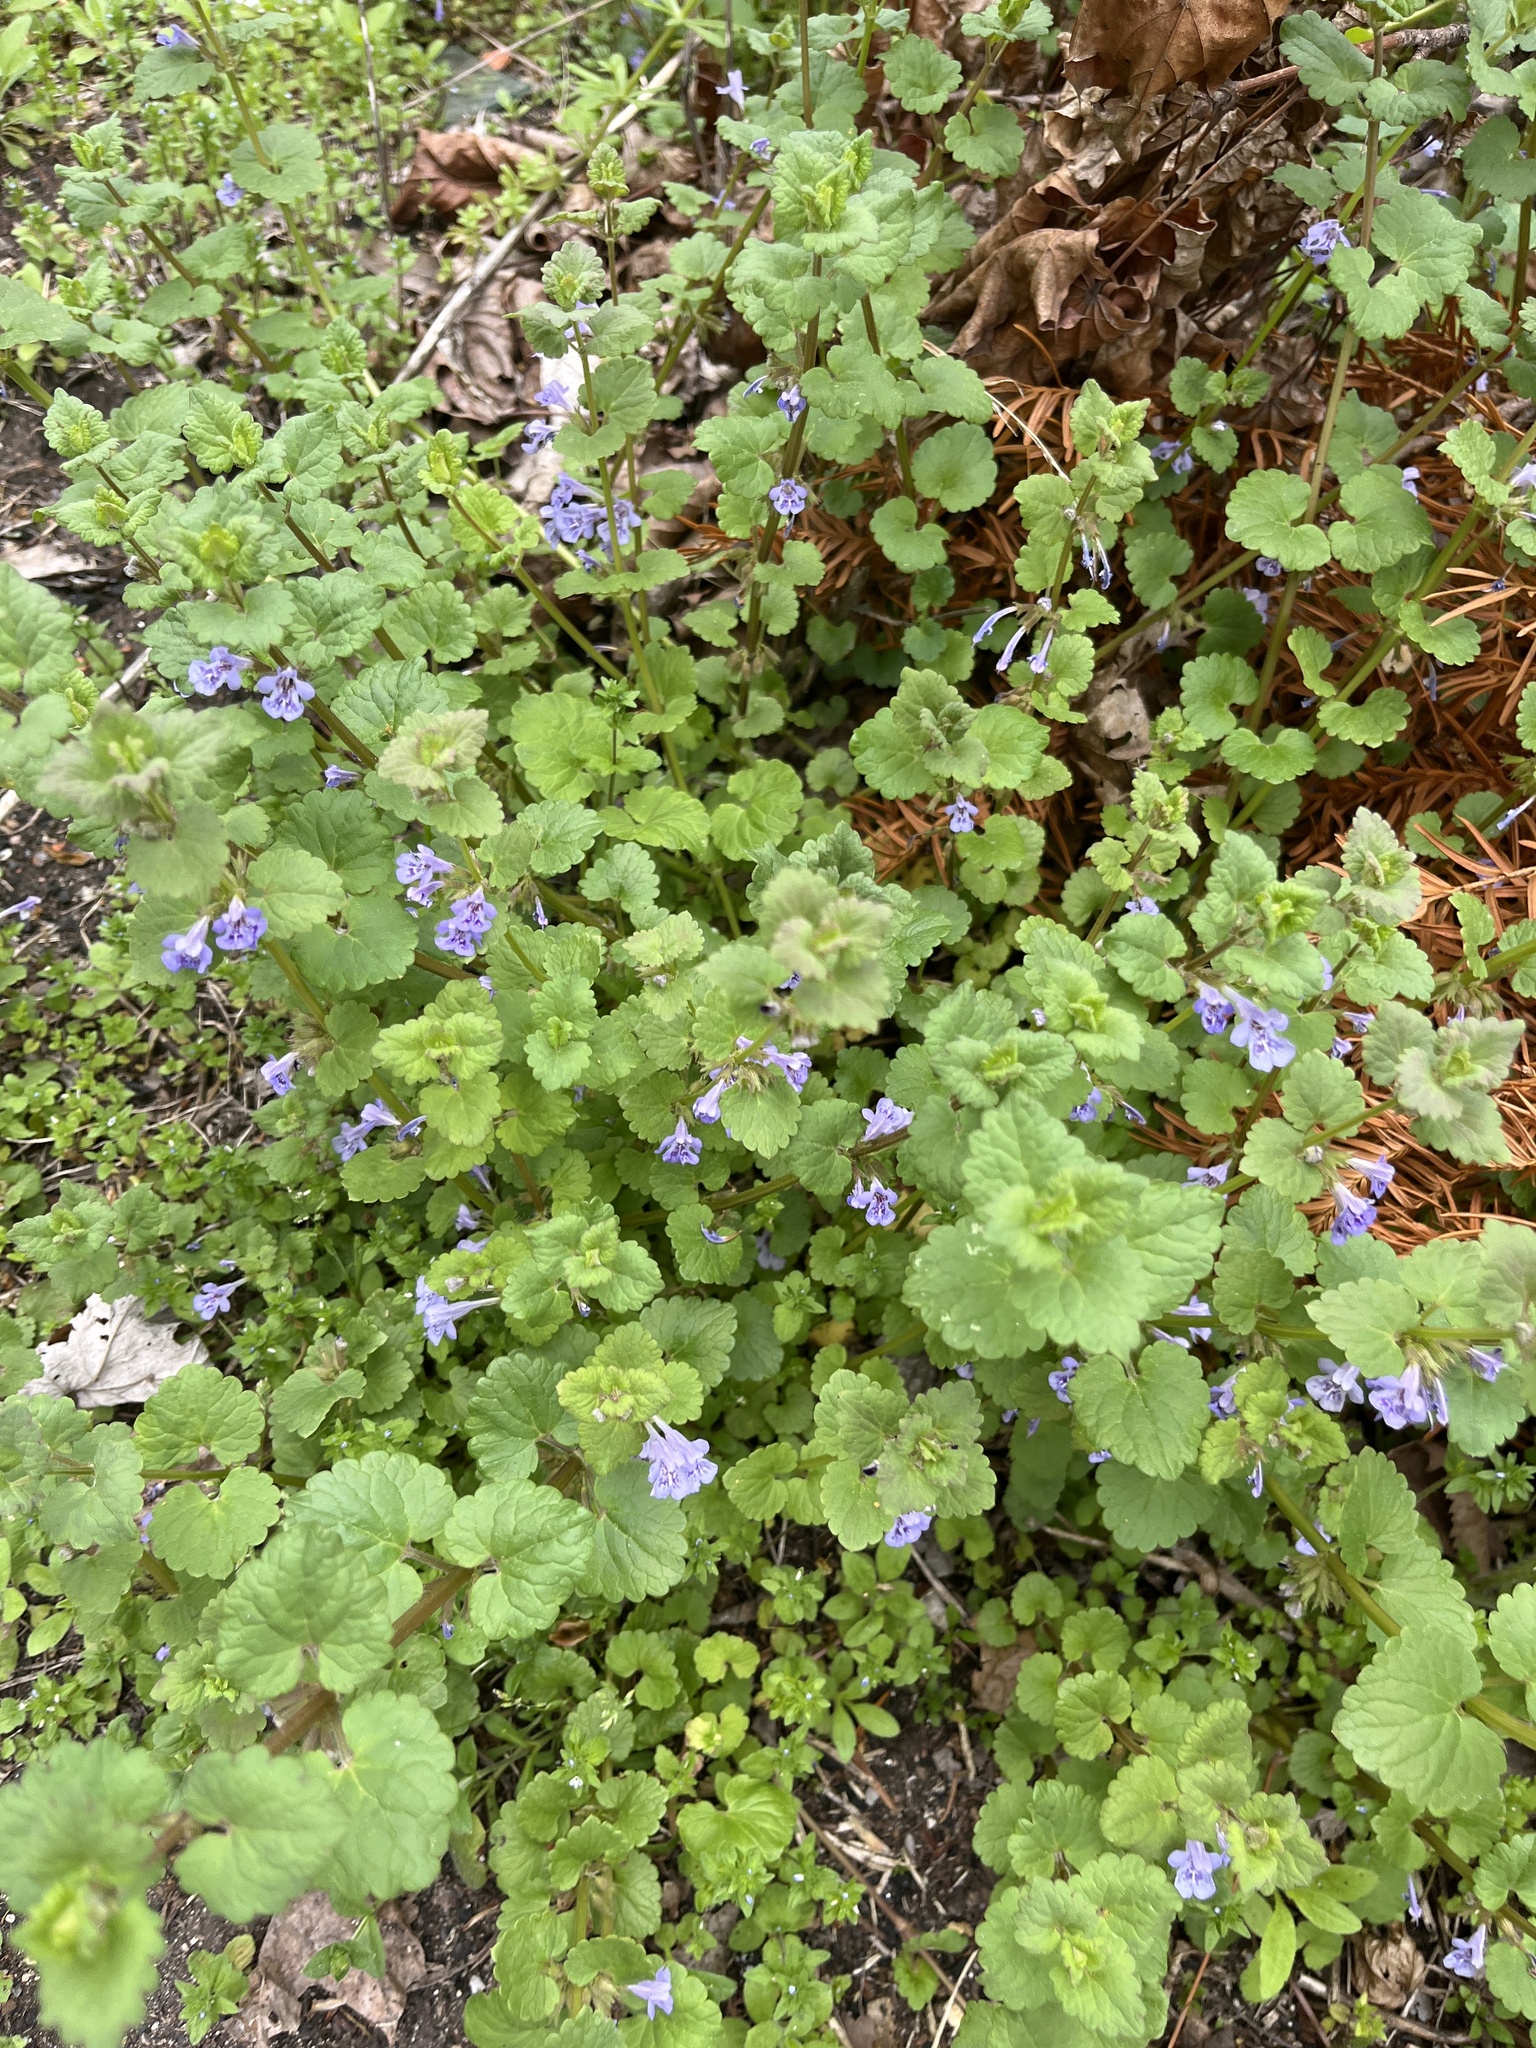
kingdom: Plantae
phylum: Tracheophyta
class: Magnoliopsida
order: Lamiales
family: Lamiaceae
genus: Glechoma
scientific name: Glechoma hederacea
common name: Ground ivy
